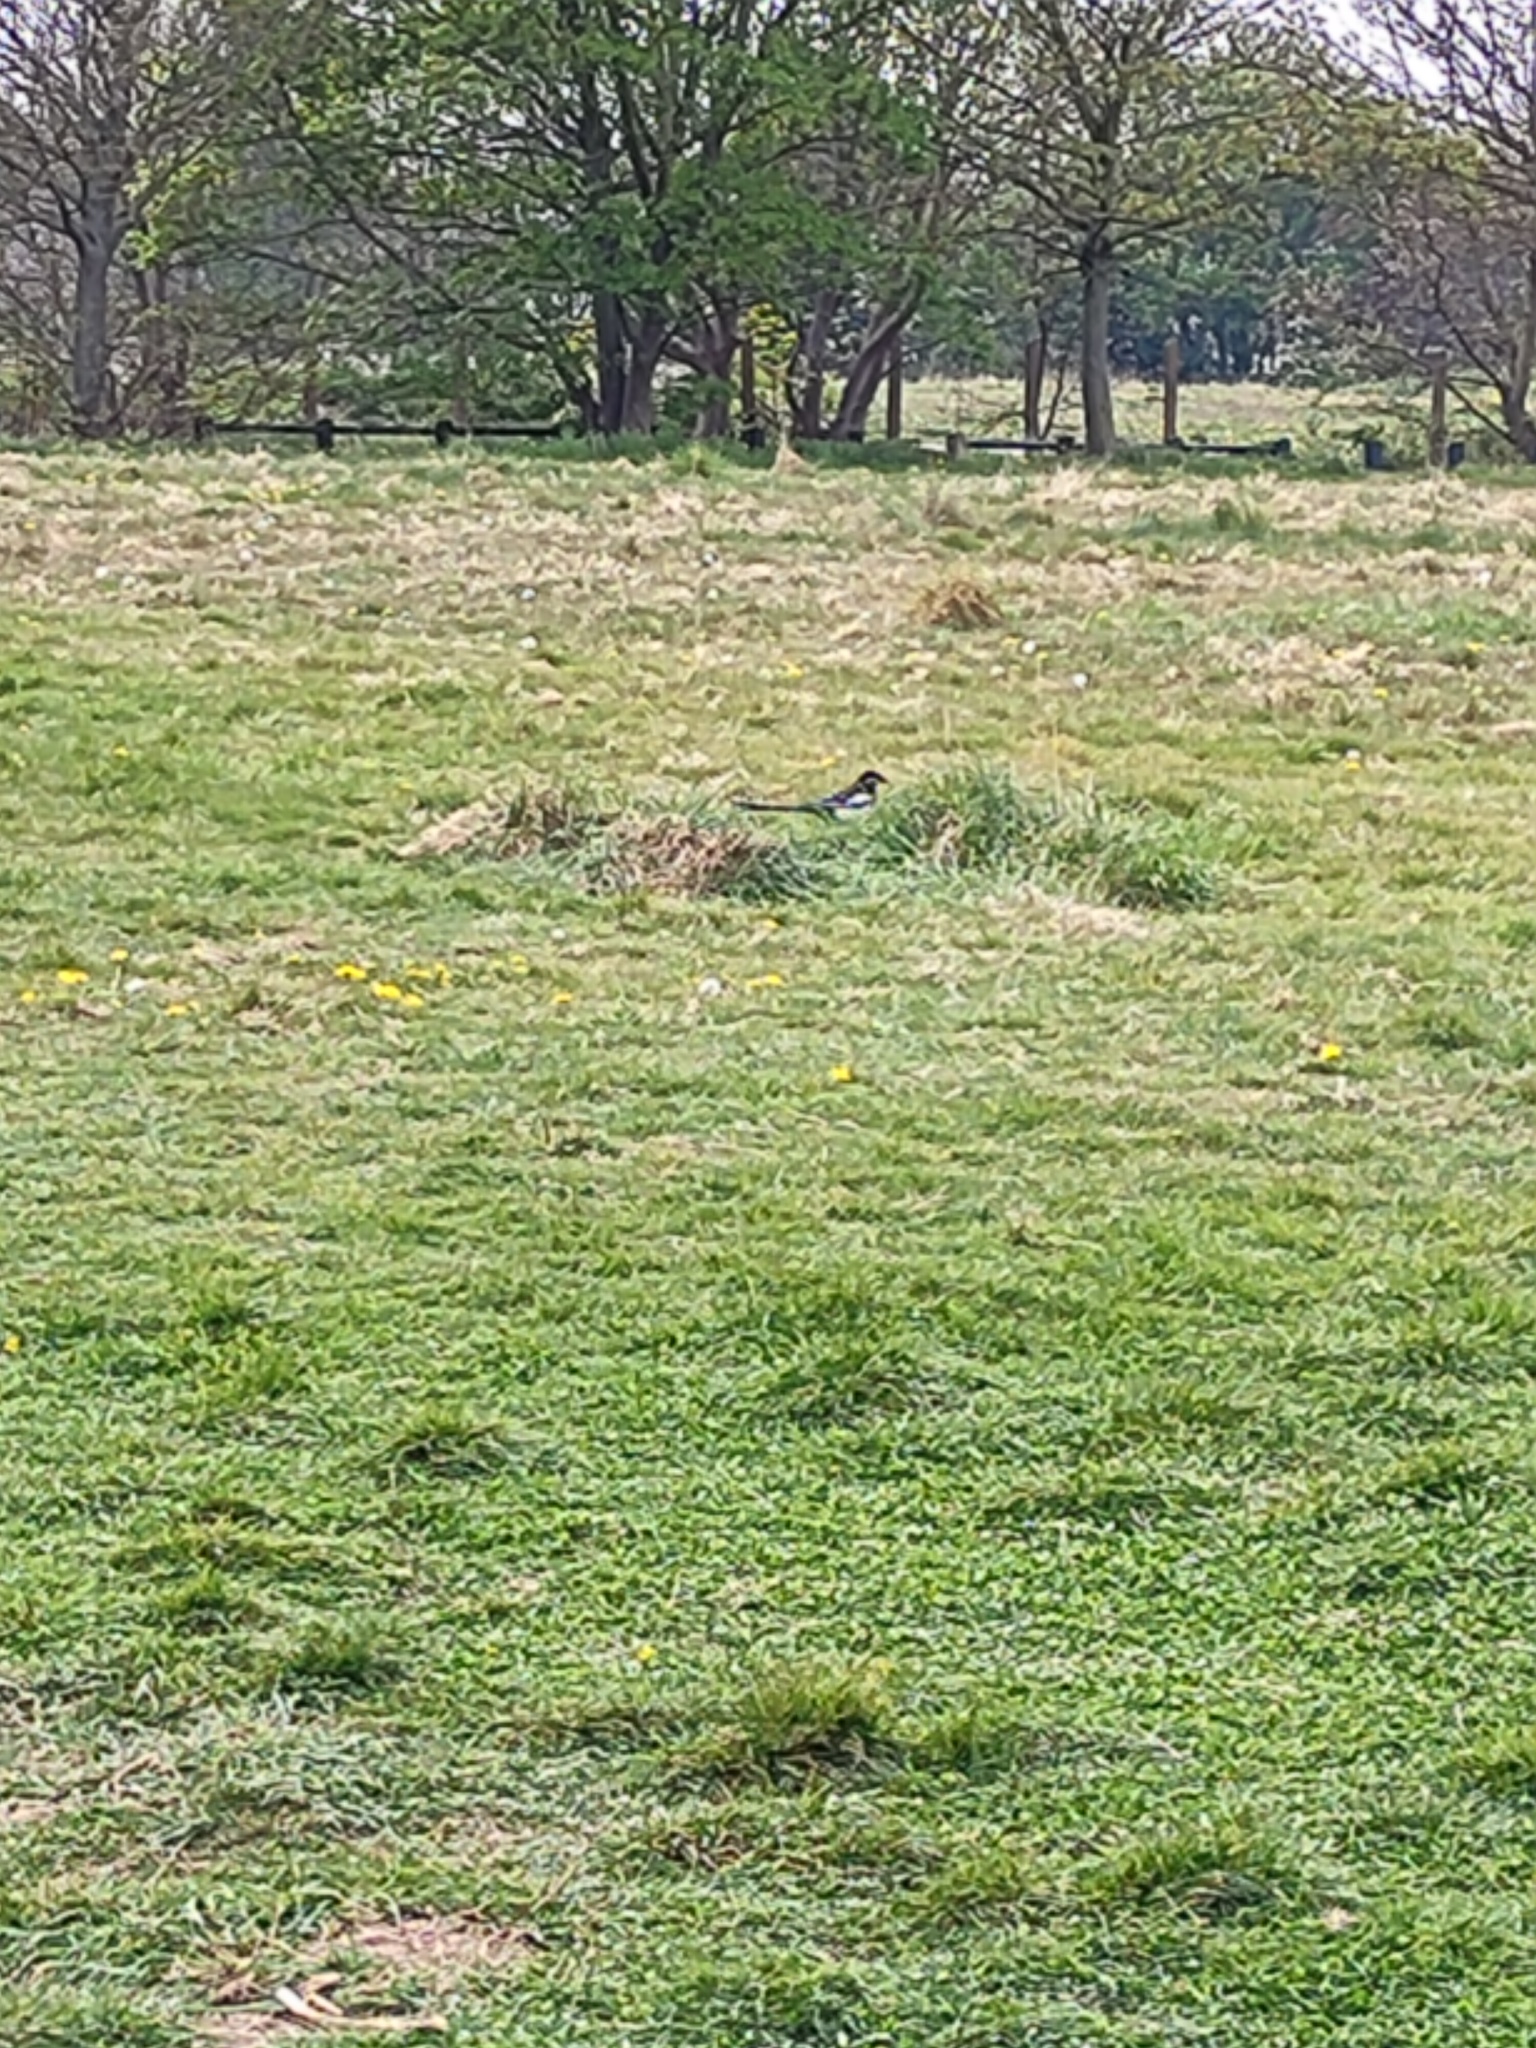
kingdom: Animalia
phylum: Chordata
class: Aves
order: Passeriformes
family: Corvidae
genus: Pica
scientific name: Pica pica
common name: Eurasian magpie
